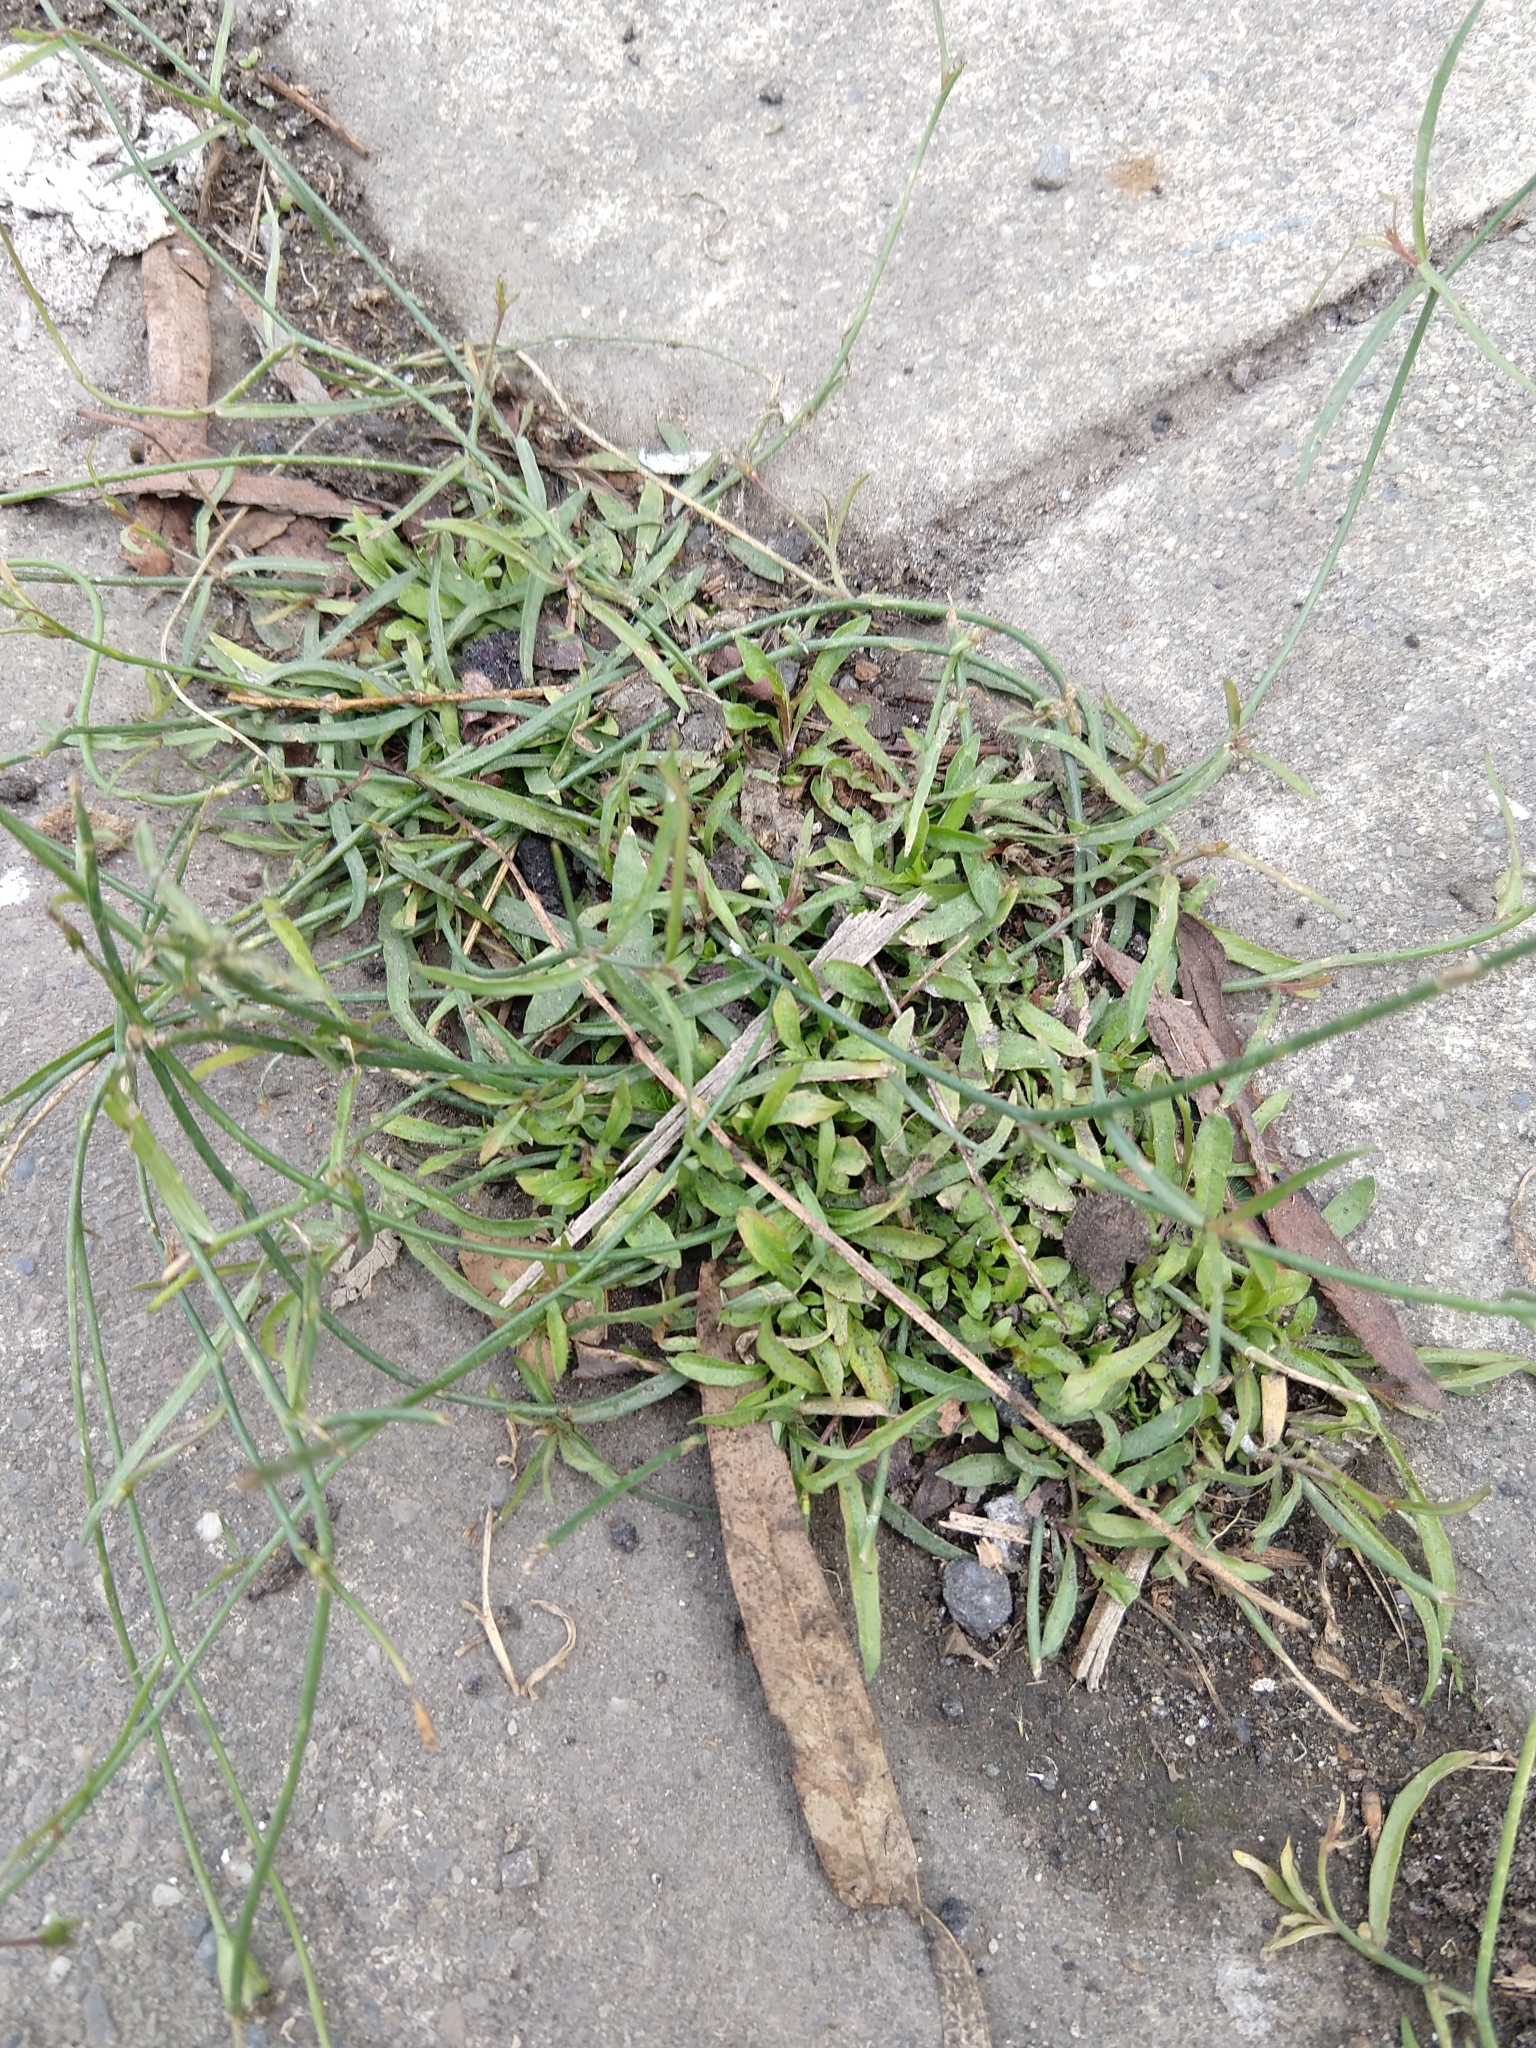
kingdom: Plantae
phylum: Tracheophyta
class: Magnoliopsida
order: Asterales
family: Campanulaceae
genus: Wahlenbergia
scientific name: Wahlenbergia marginata
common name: Southern rockbell
